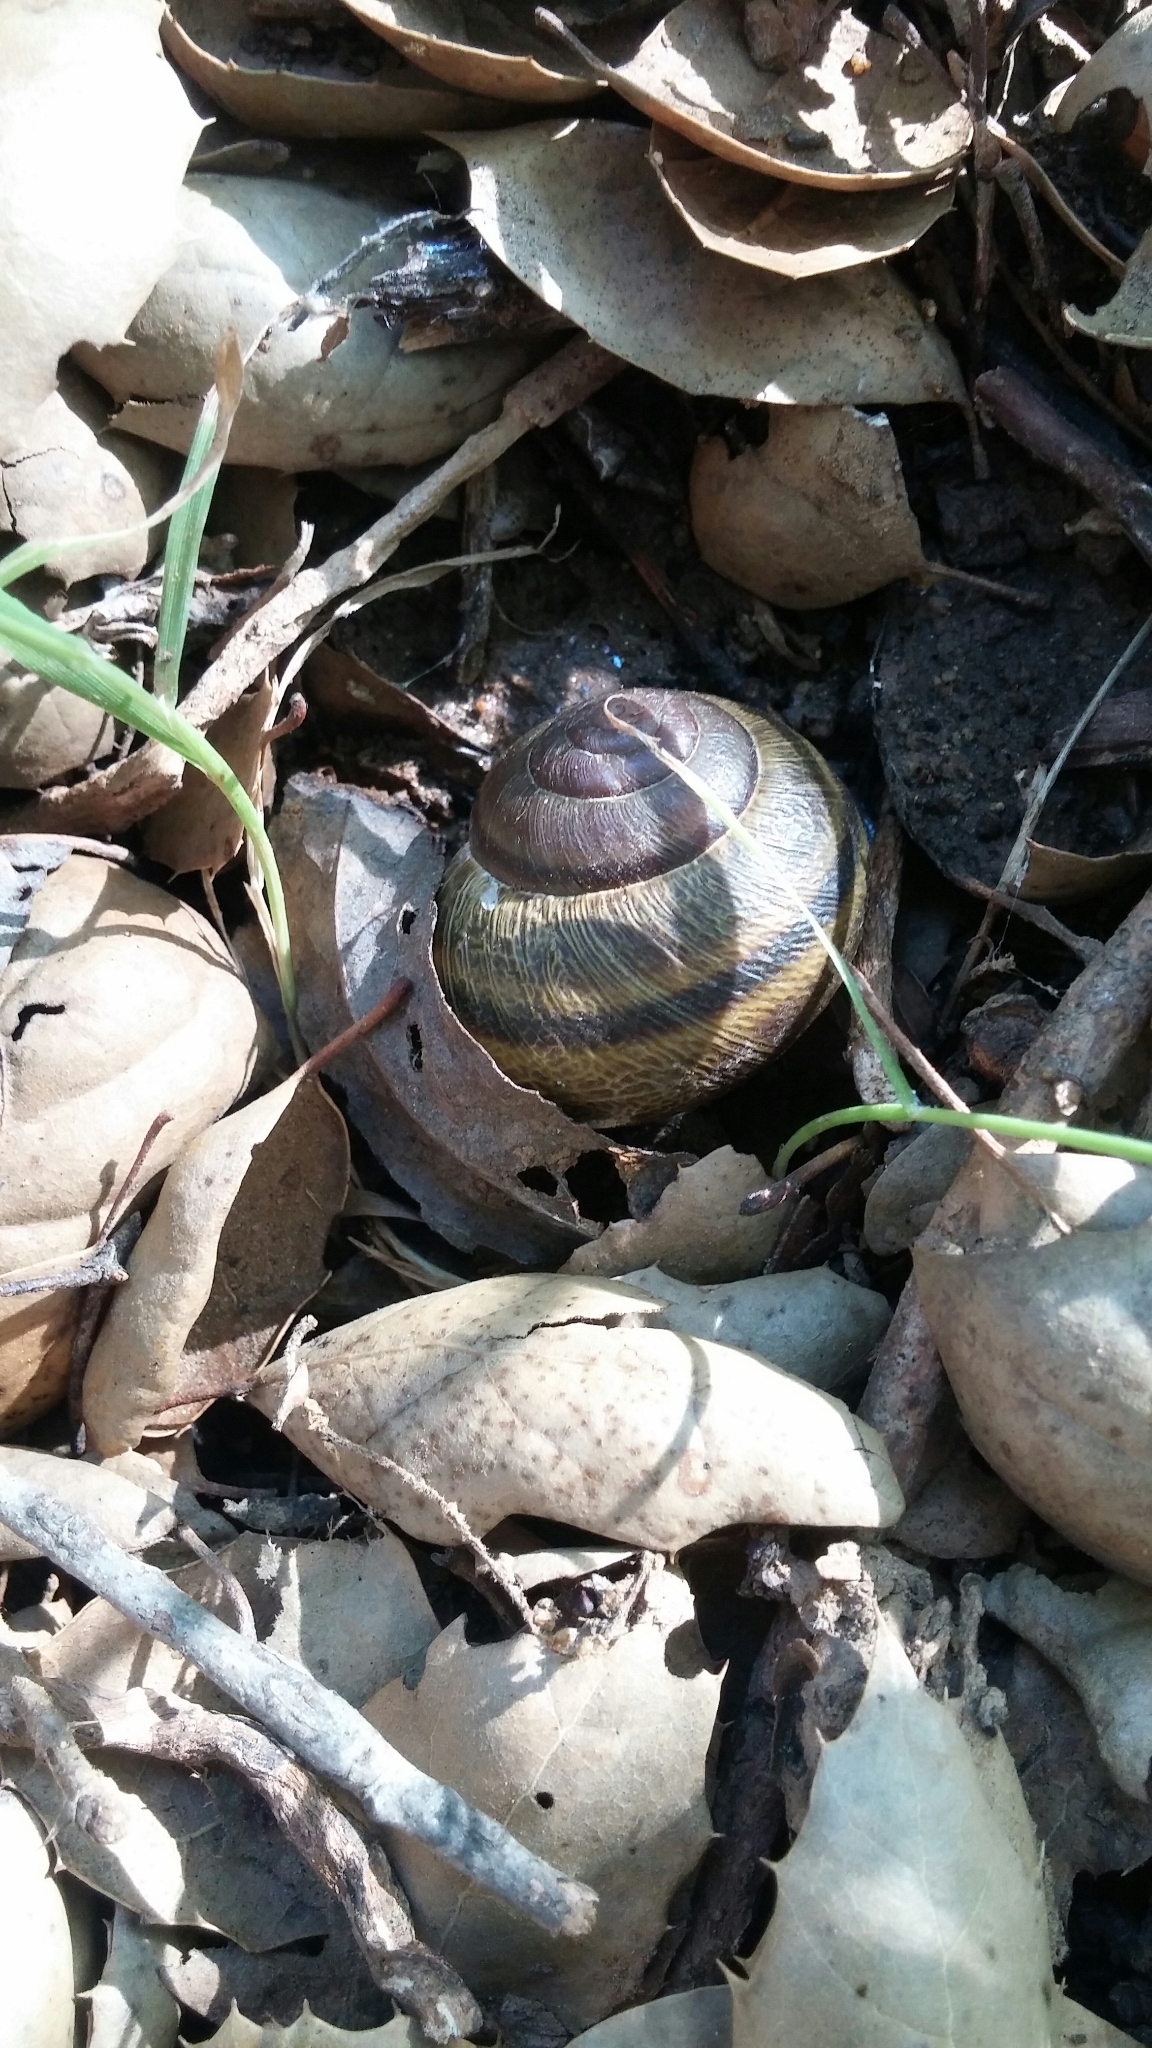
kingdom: Animalia
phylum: Mollusca
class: Gastropoda
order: Stylommatophora
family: Xanthonychidae
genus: Helminthoglypta
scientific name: Helminthoglypta tudiculata
